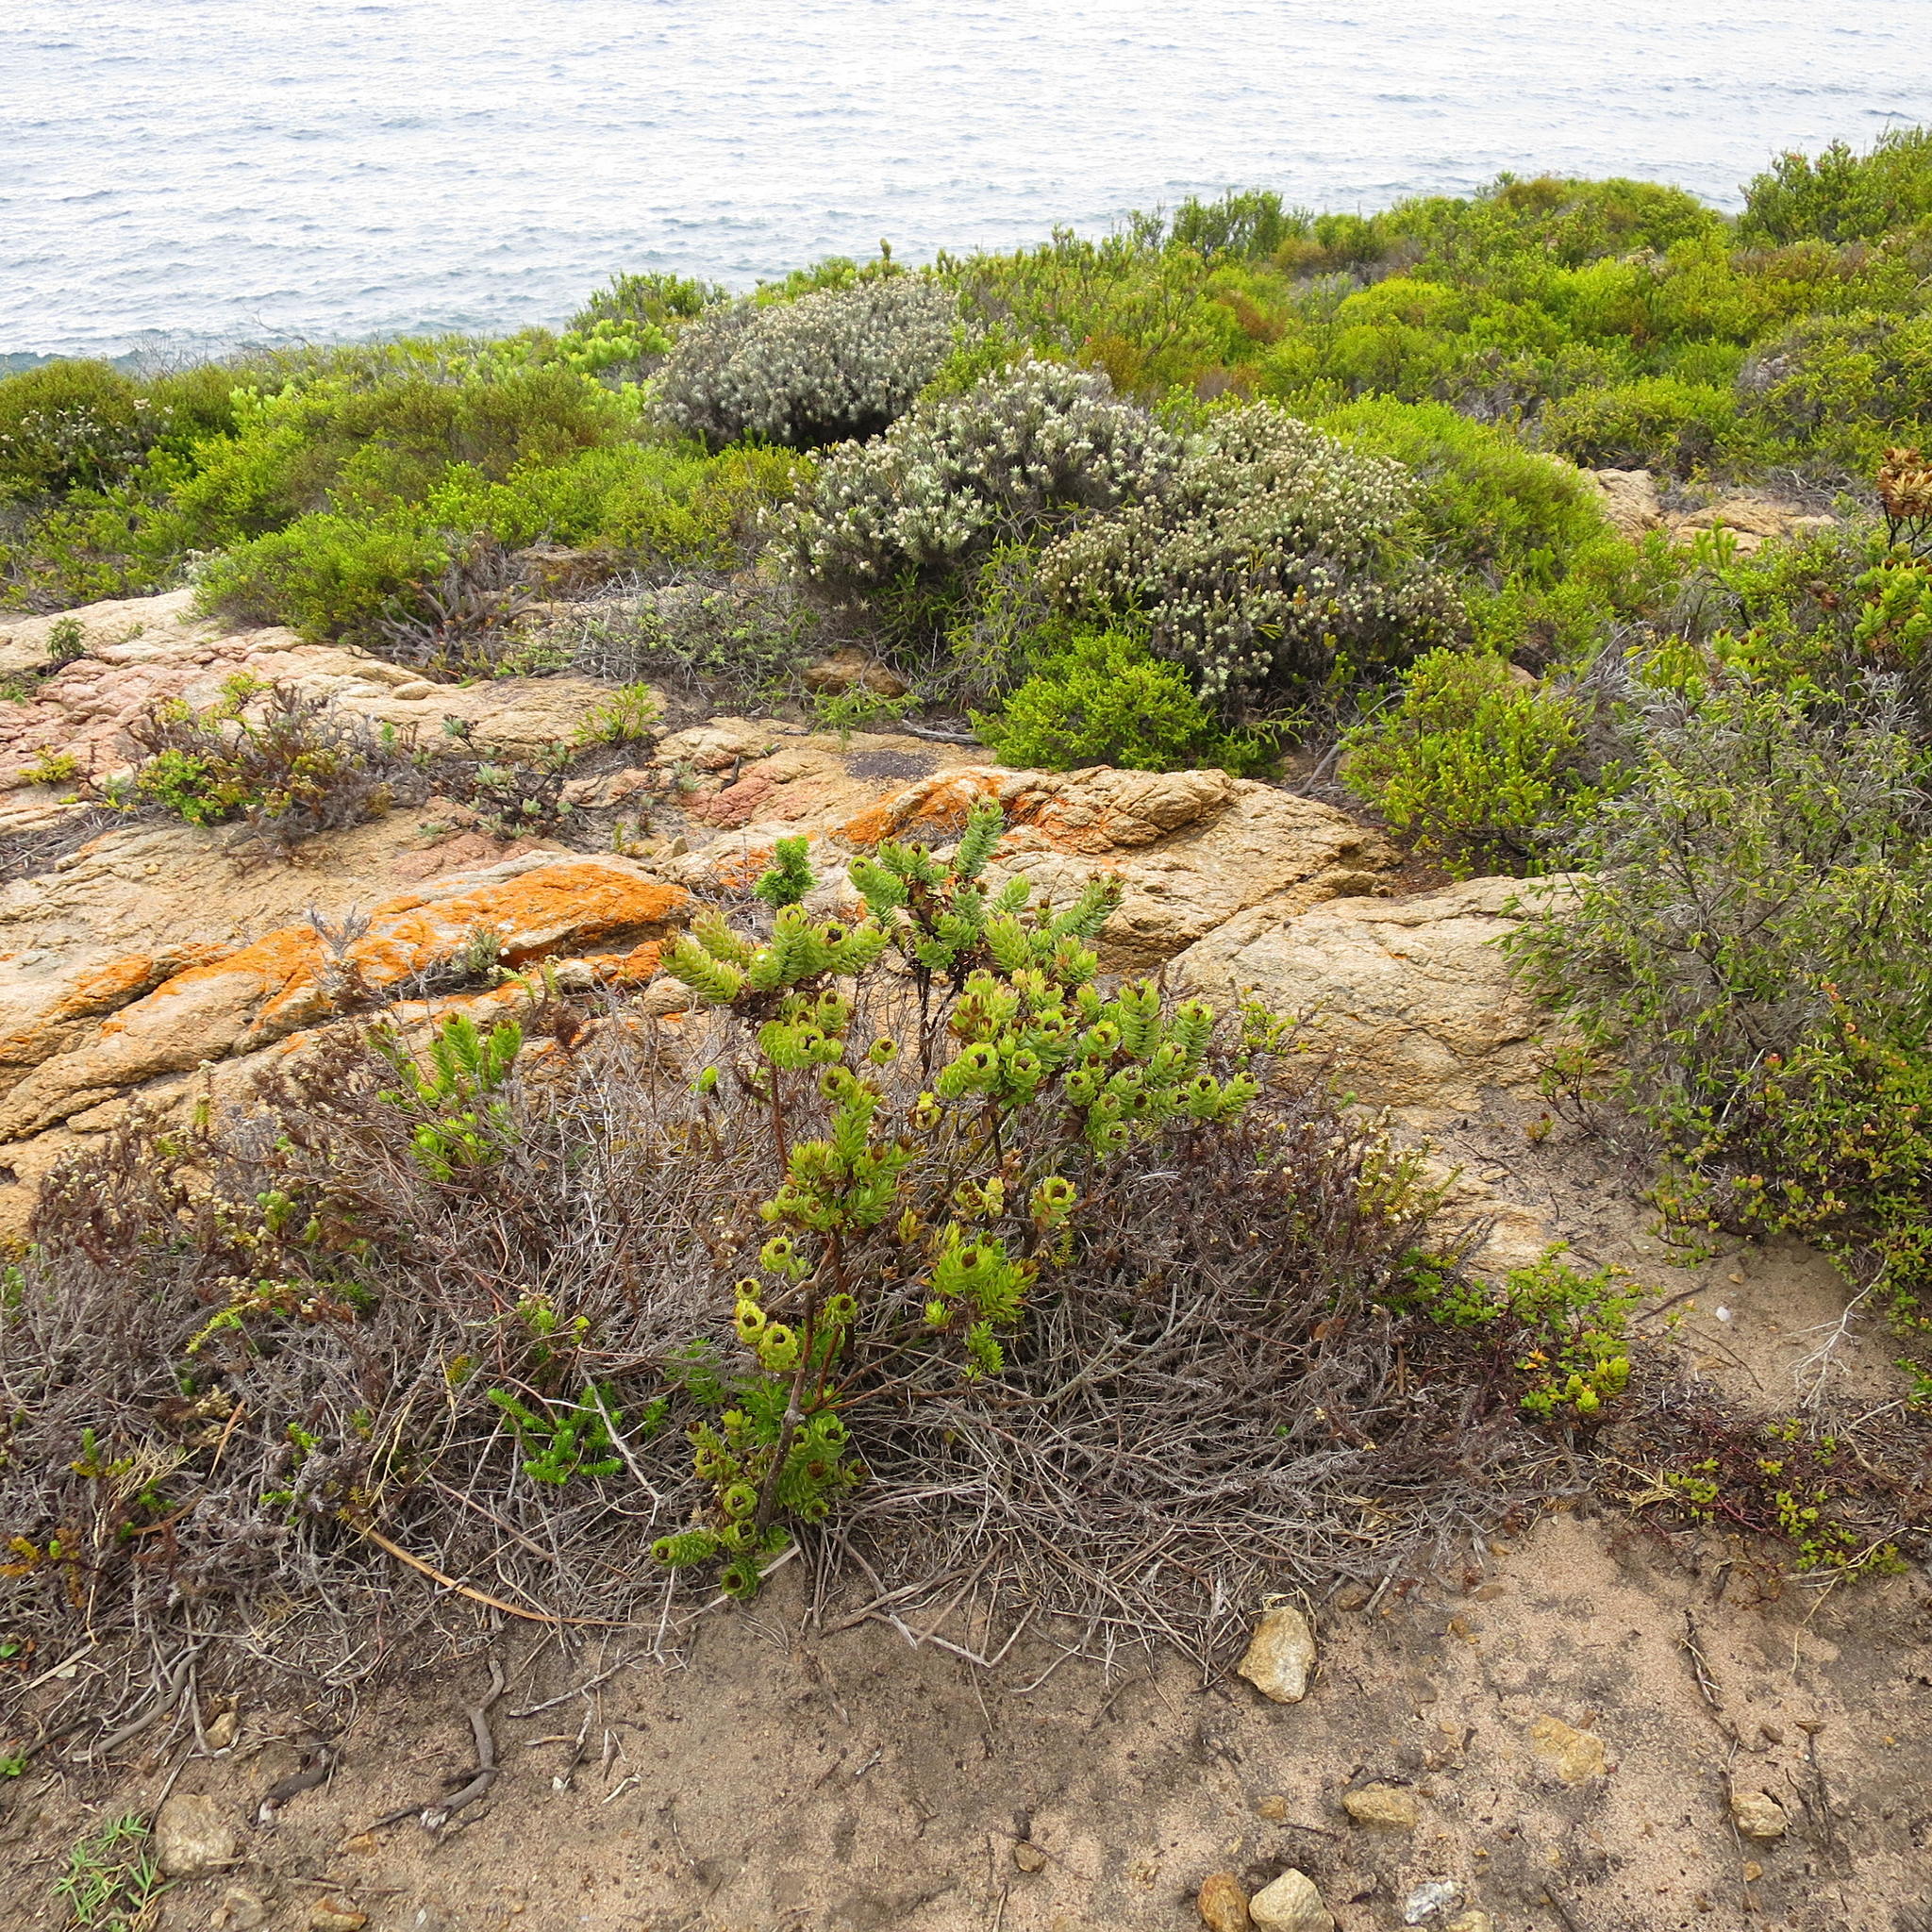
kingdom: Plantae
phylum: Tracheophyta
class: Magnoliopsida
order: Asterales
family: Asteraceae
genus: Oedera
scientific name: Oedera calycina
